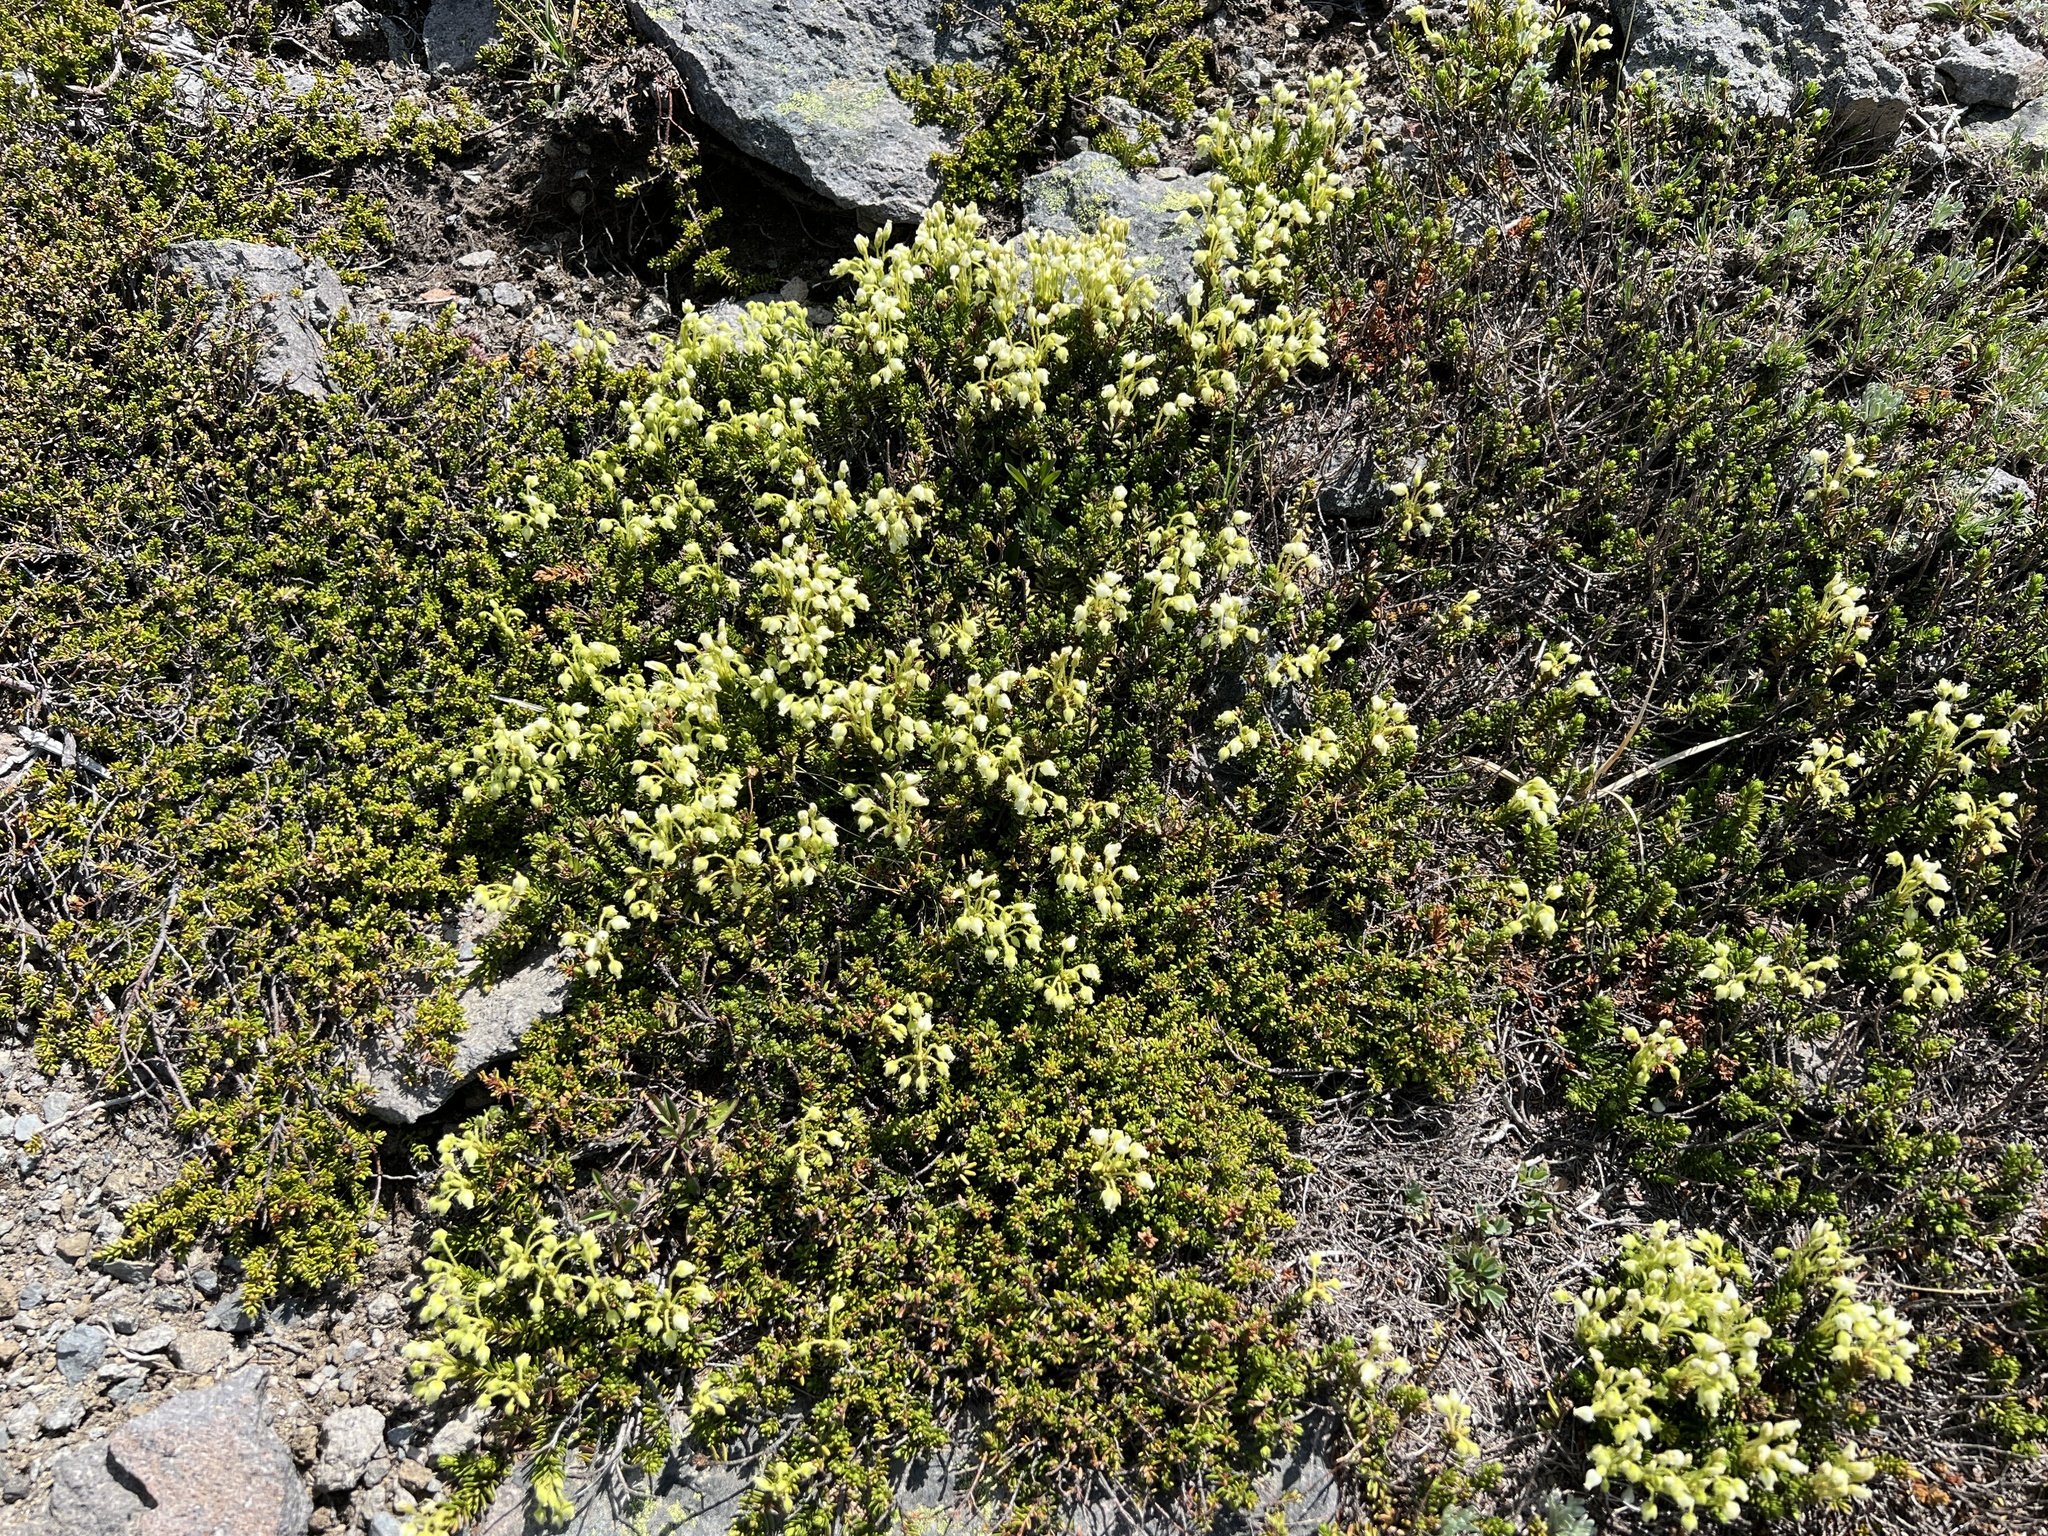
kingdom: Plantae
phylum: Tracheophyta
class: Magnoliopsida
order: Ericales
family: Ericaceae
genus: Phyllodoce
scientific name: Phyllodoce glanduliflora
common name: Cream mountain heather
